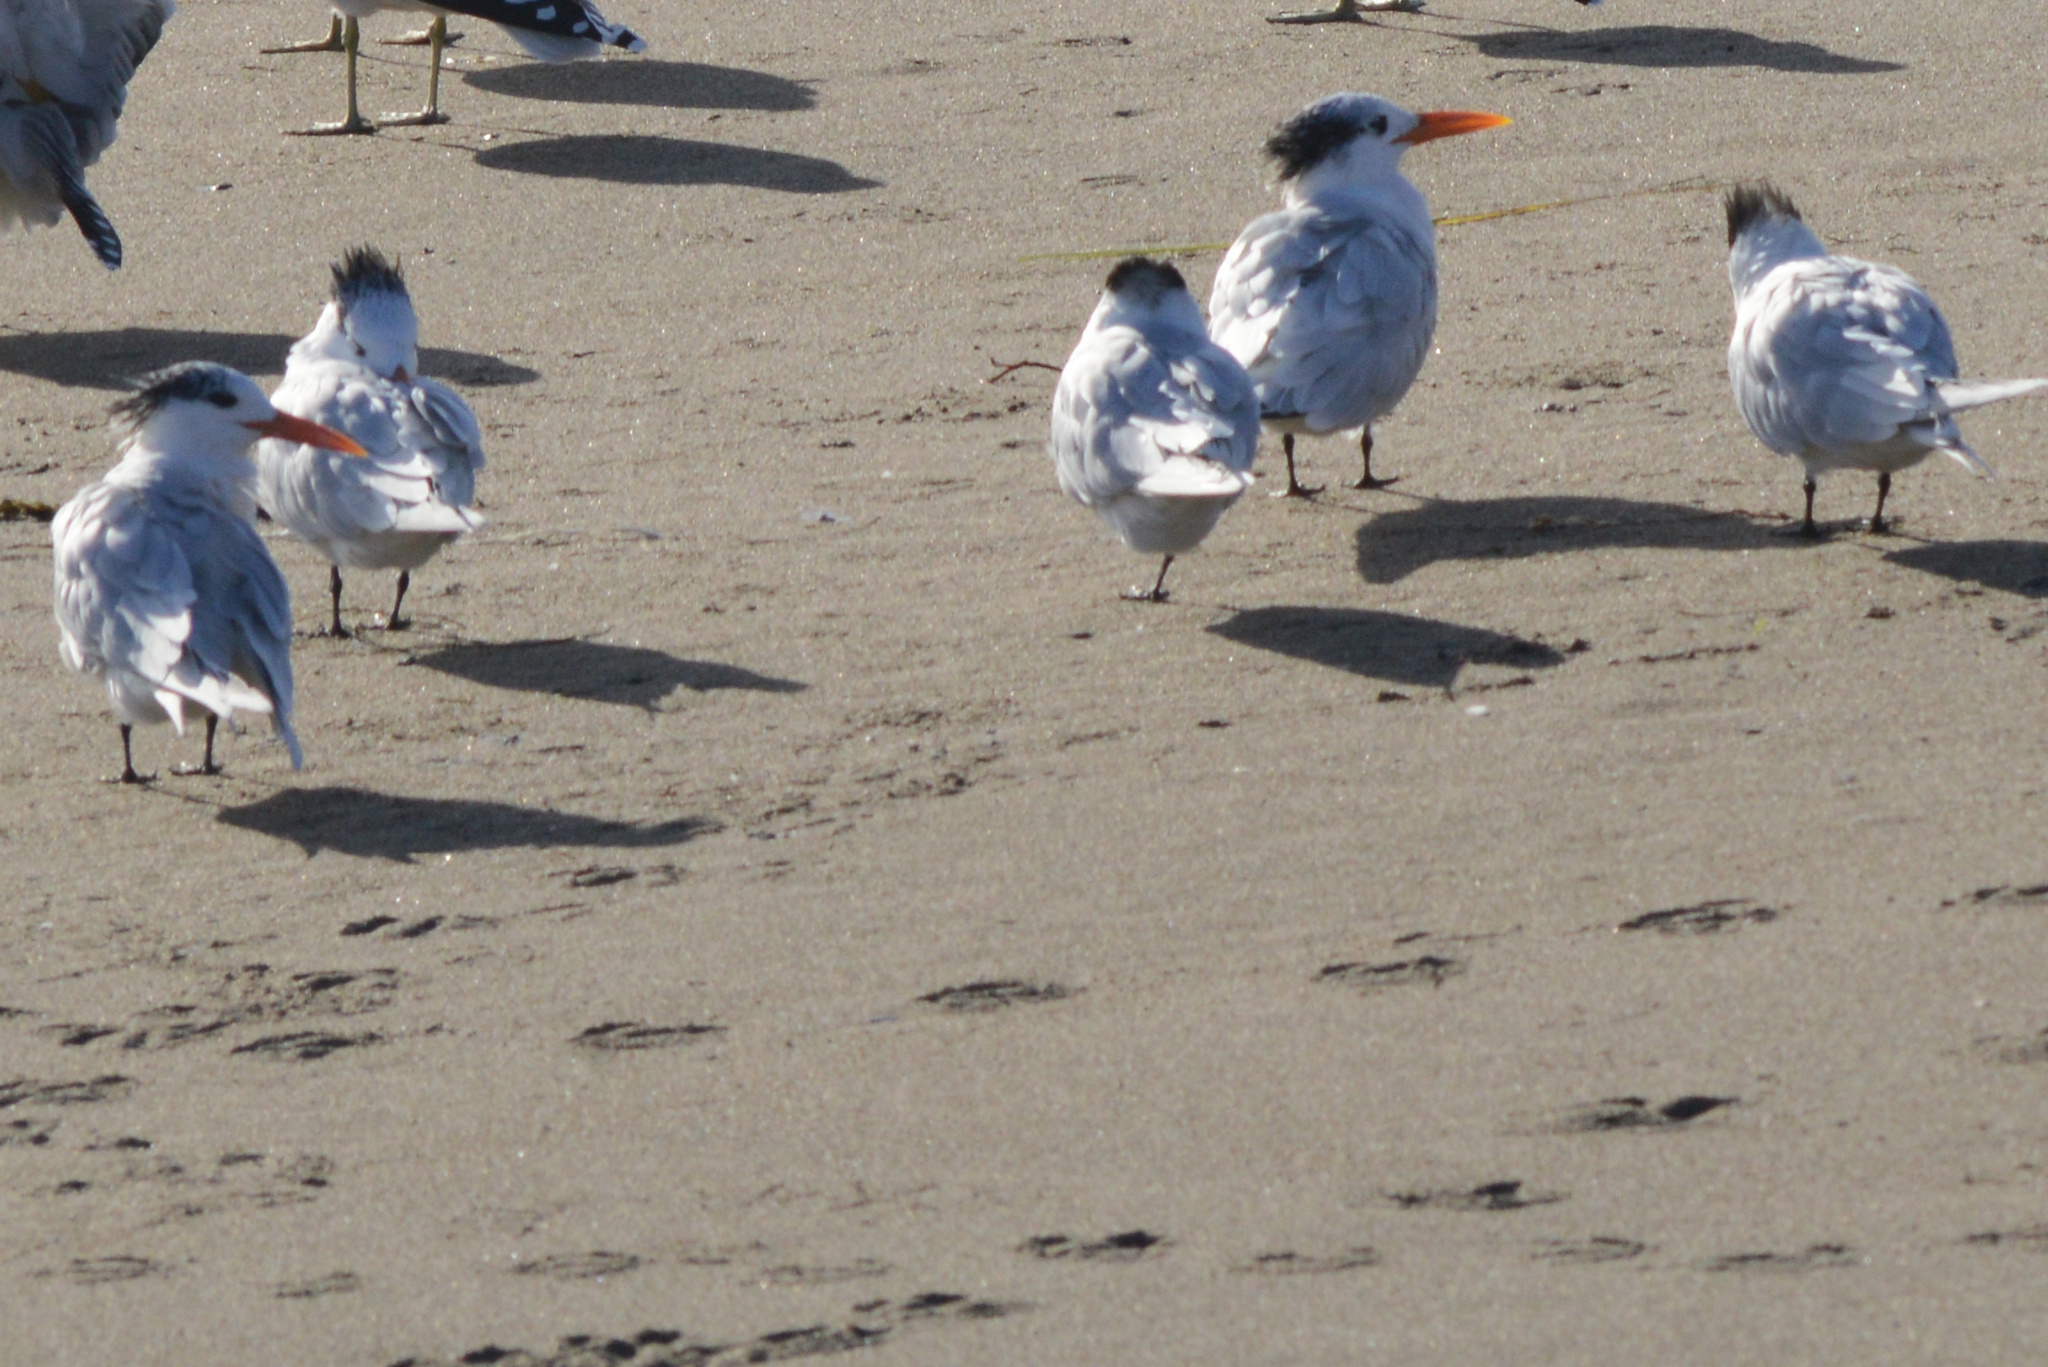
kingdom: Animalia
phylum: Chordata
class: Aves
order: Charadriiformes
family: Laridae
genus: Thalasseus
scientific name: Thalasseus maximus
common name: Royal tern
